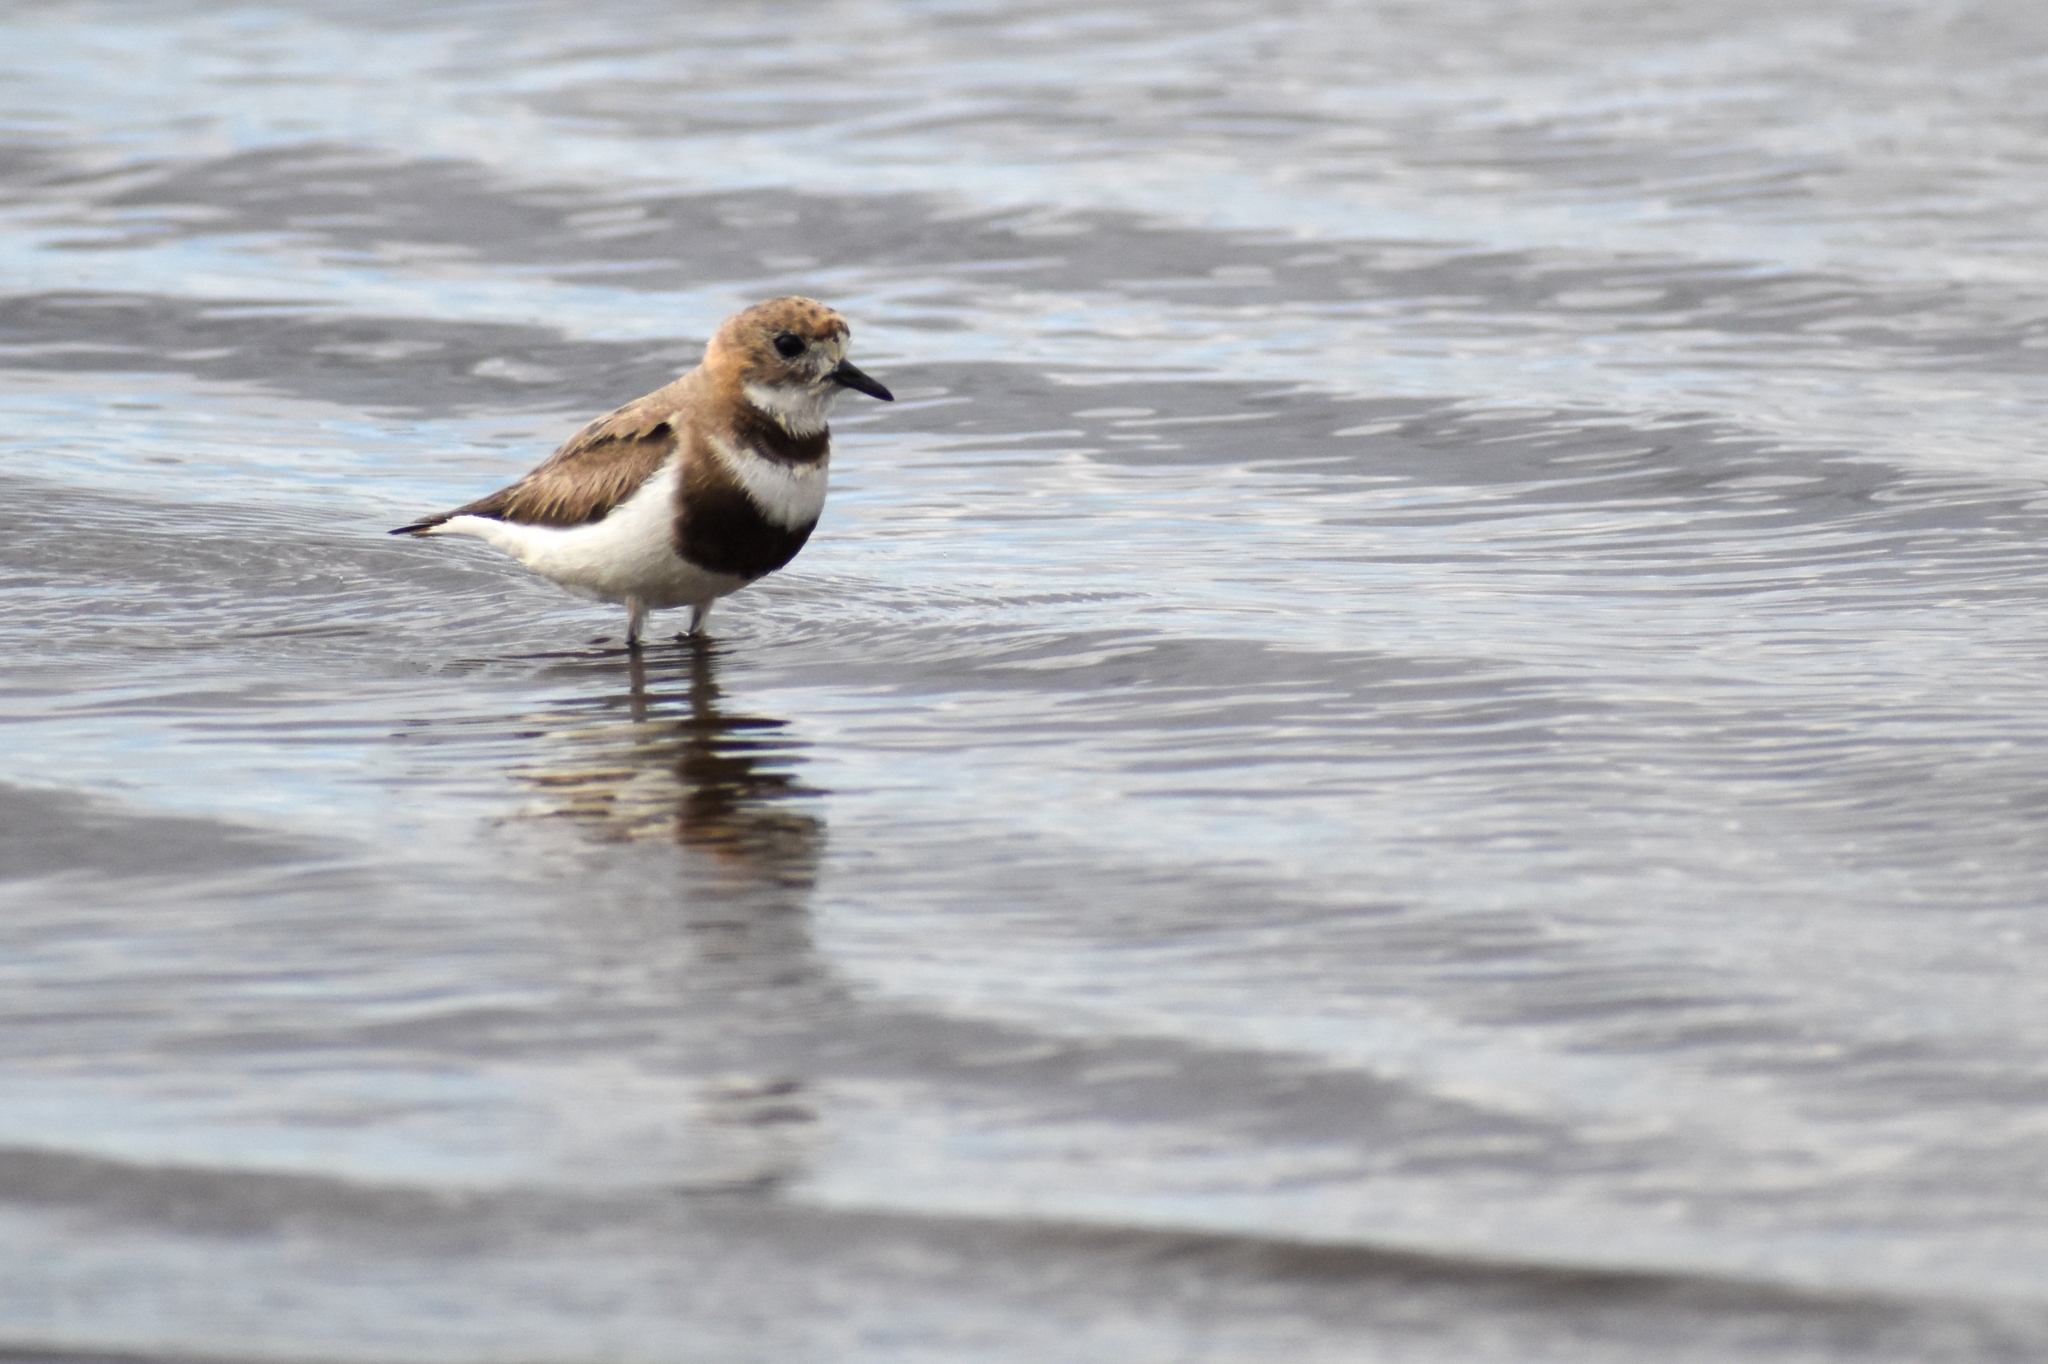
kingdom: Animalia
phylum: Chordata
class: Aves
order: Charadriiformes
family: Charadriidae
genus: Anarhynchus
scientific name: Anarhynchus
